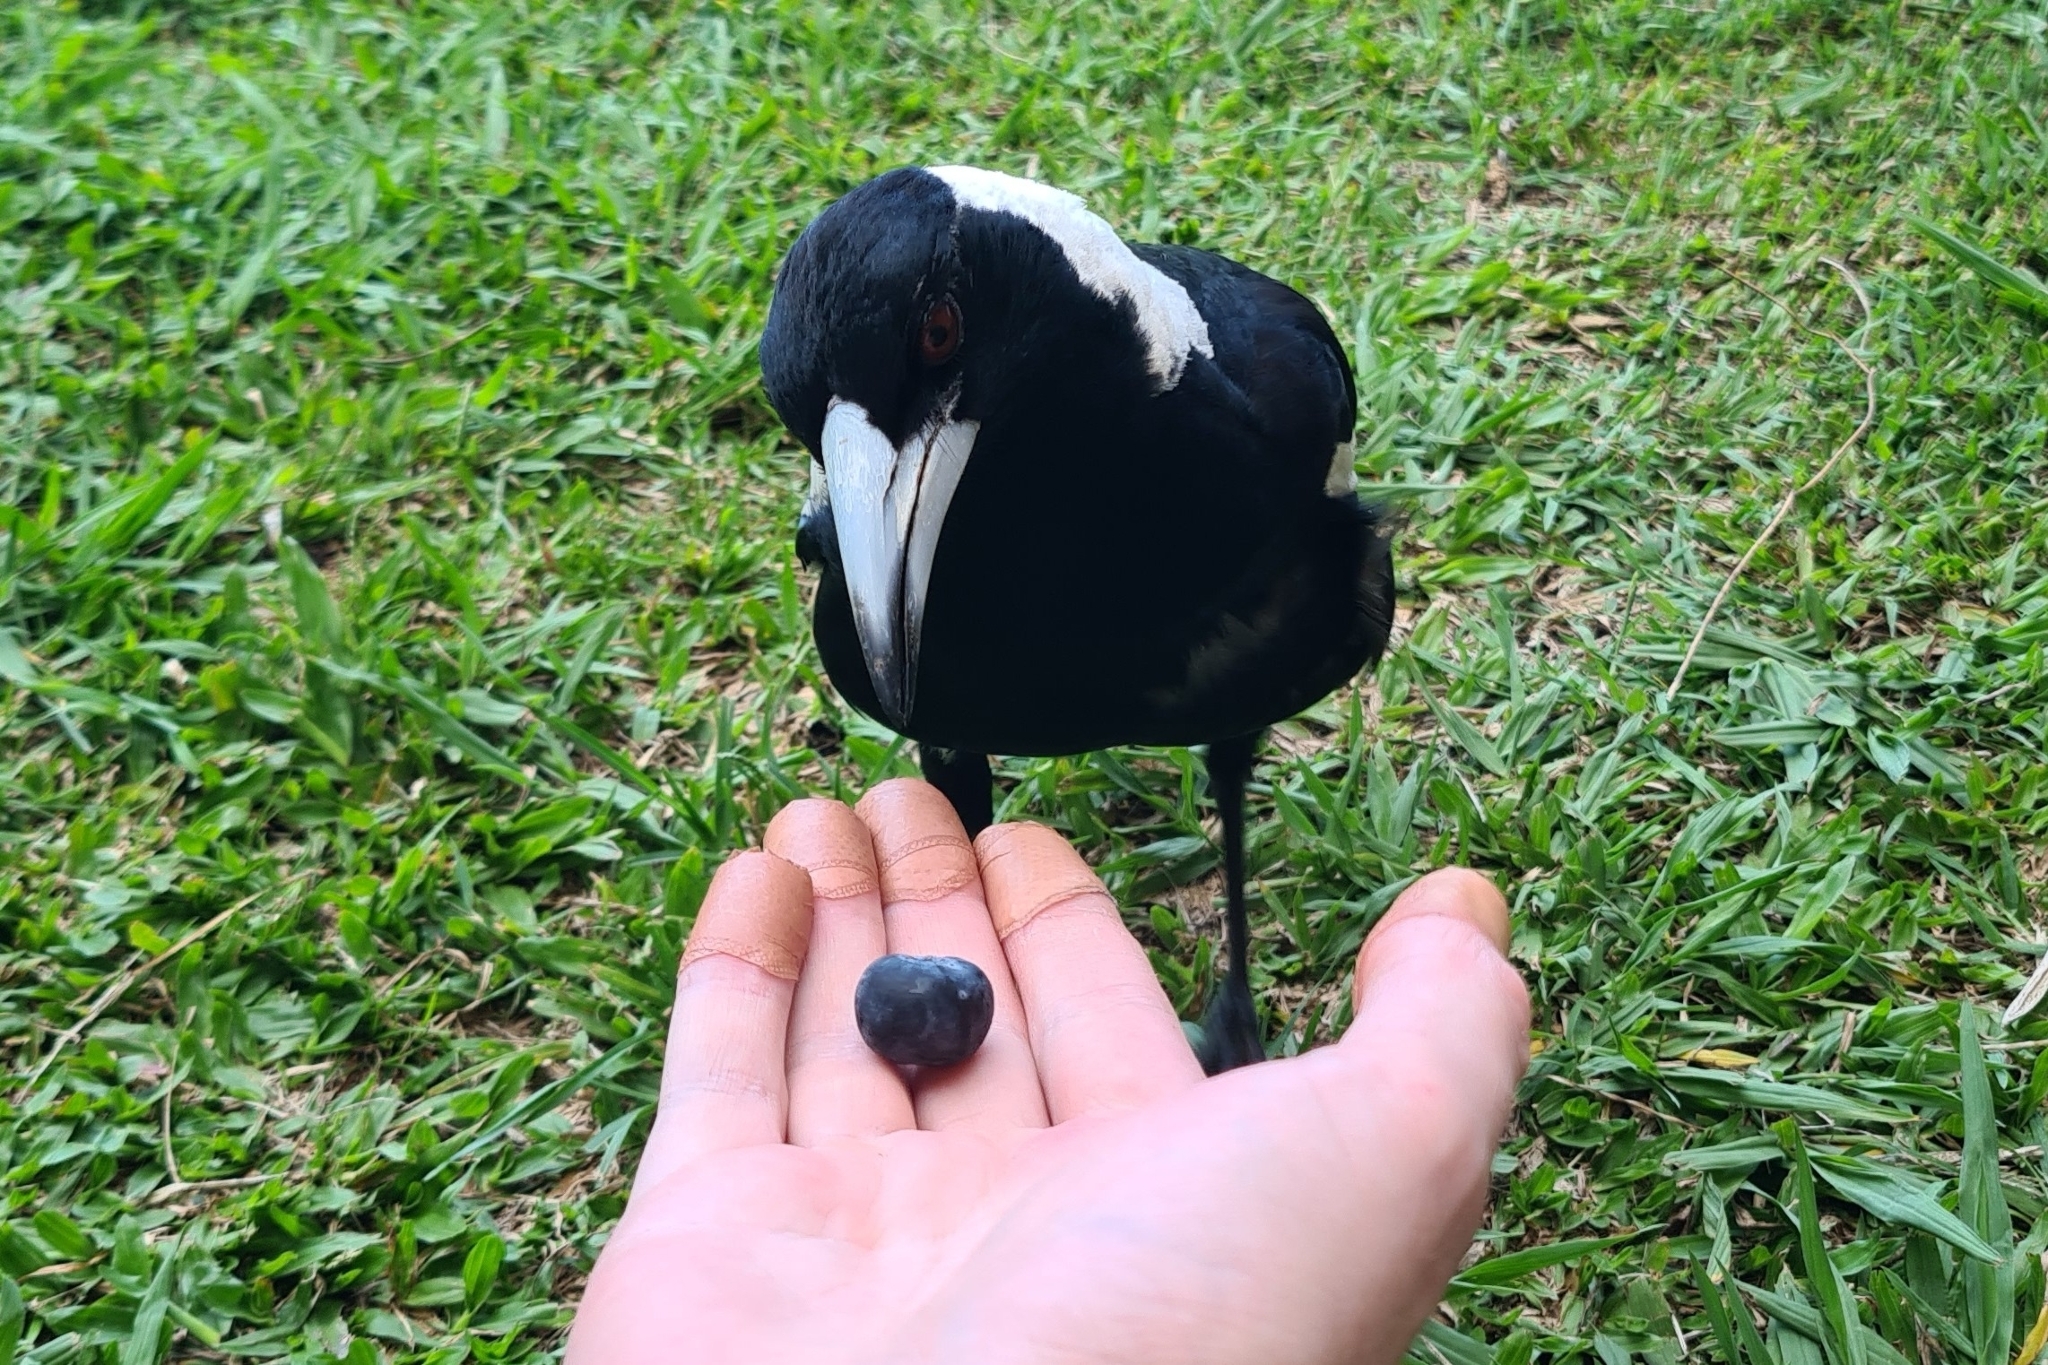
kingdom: Animalia
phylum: Chordata
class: Aves
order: Passeriformes
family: Cracticidae
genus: Gymnorhina
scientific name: Gymnorhina tibicen
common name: Australian magpie
